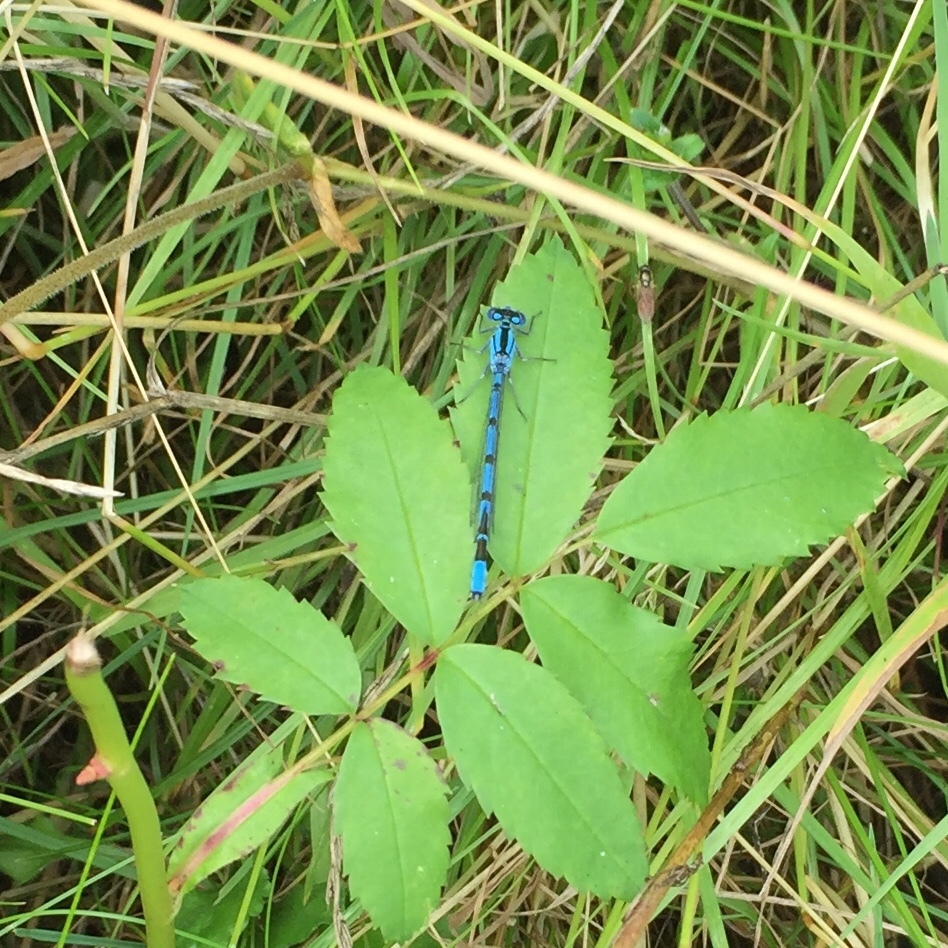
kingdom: Animalia
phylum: Arthropoda
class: Insecta
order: Odonata
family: Coenagrionidae
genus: Enallagma
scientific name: Enallagma cyathigerum
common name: Common blue damselfly
